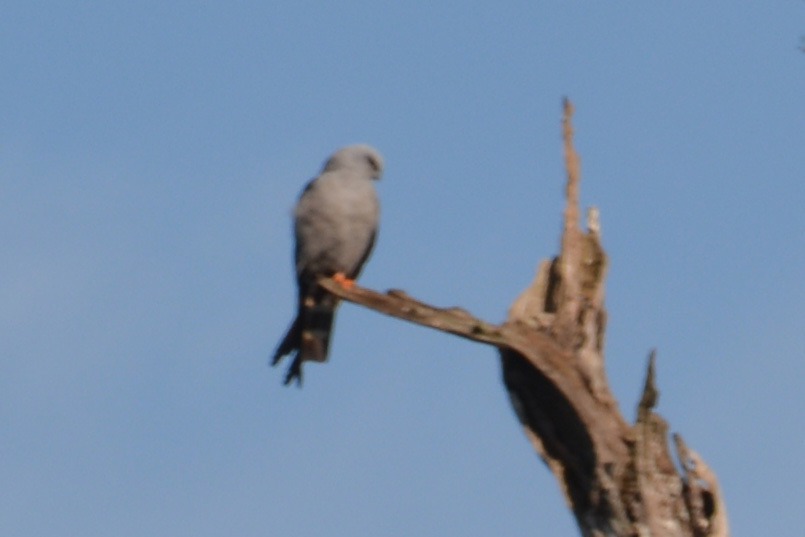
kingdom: Animalia
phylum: Chordata
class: Aves
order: Accipitriformes
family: Accipitridae
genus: Ictinia
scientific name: Ictinia plumbea
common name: Plumbeous kite
